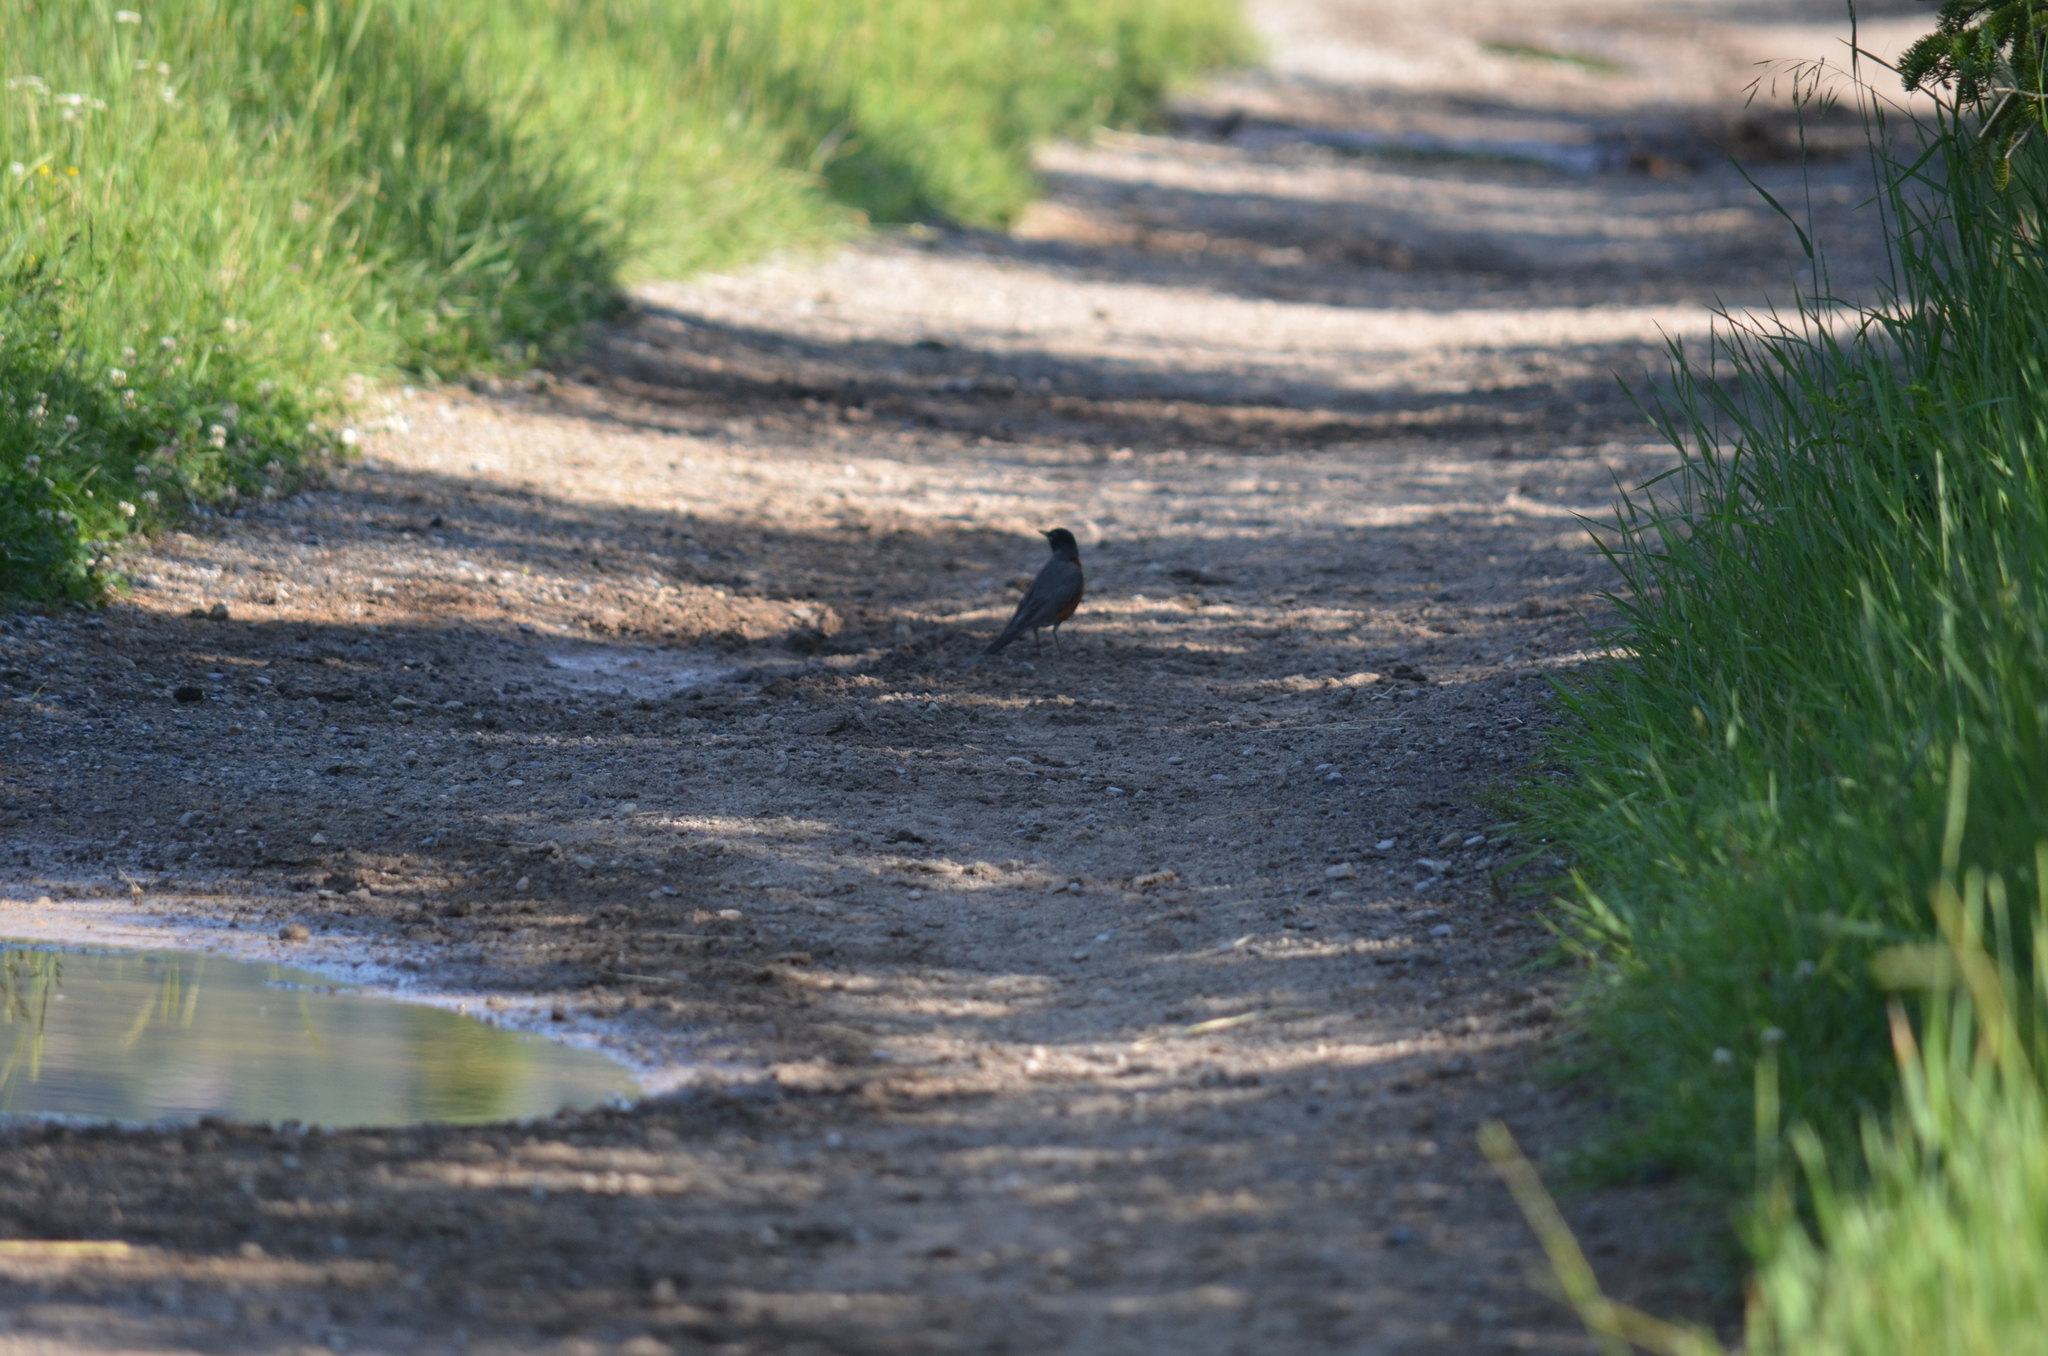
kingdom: Animalia
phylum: Chordata
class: Aves
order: Passeriformes
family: Turdidae
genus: Turdus
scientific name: Turdus migratorius
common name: American robin
